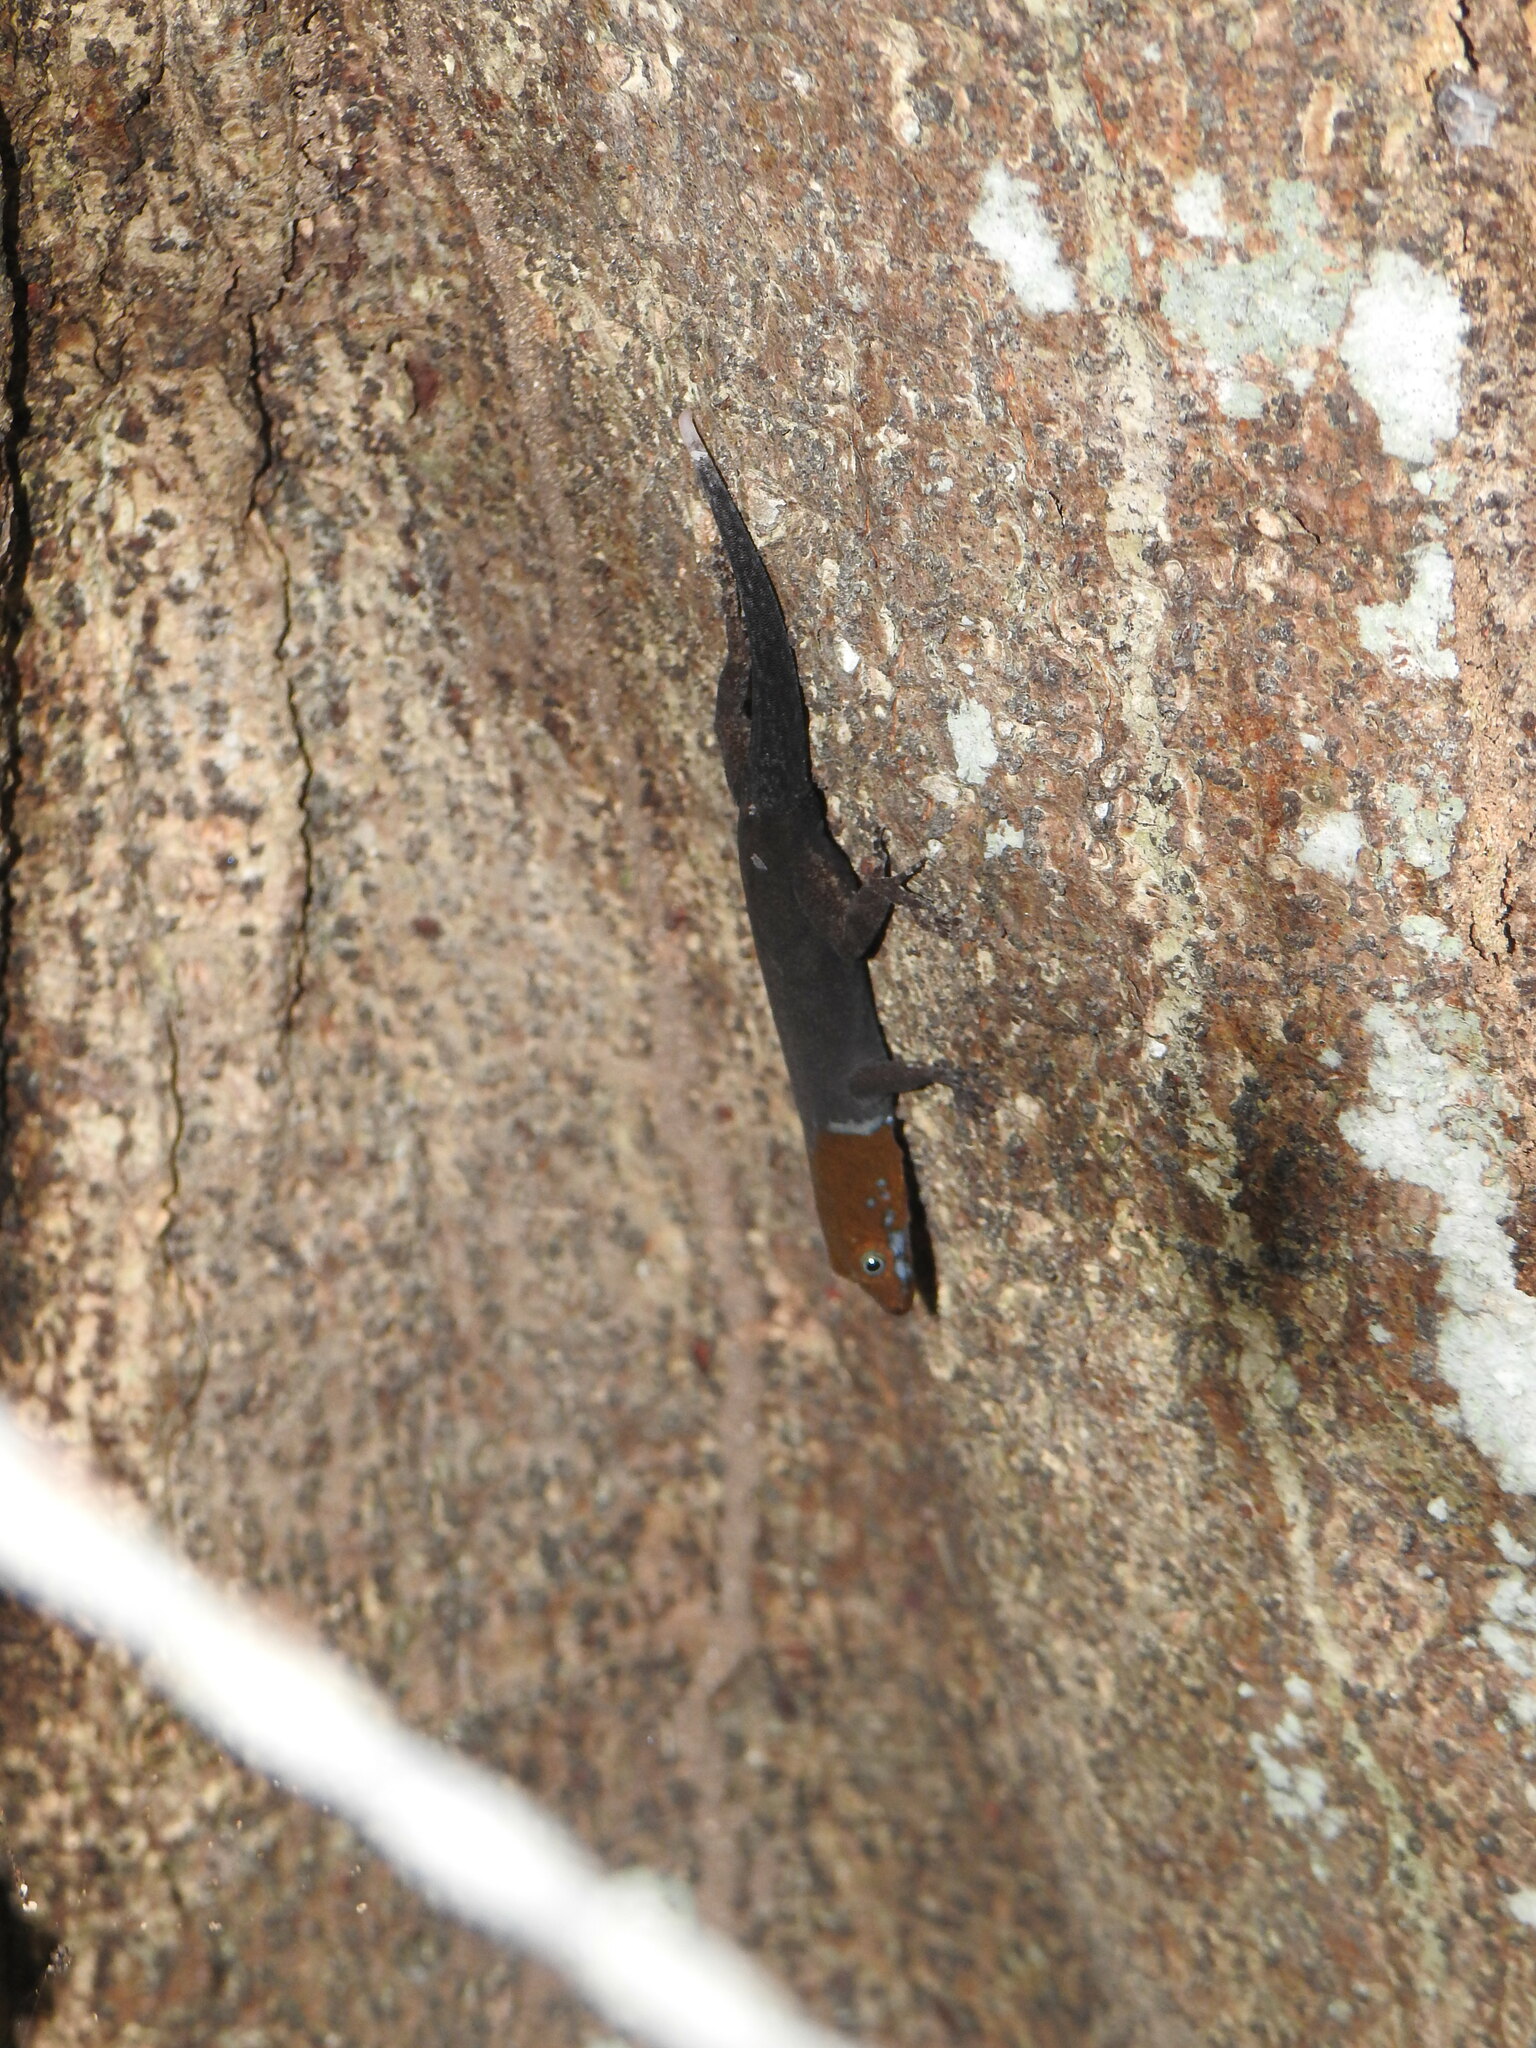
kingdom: Animalia
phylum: Chordata
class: Squamata
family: Sphaerodactylidae
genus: Gonatodes
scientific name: Gonatodes albogularis
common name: Yellow-headed gecko
